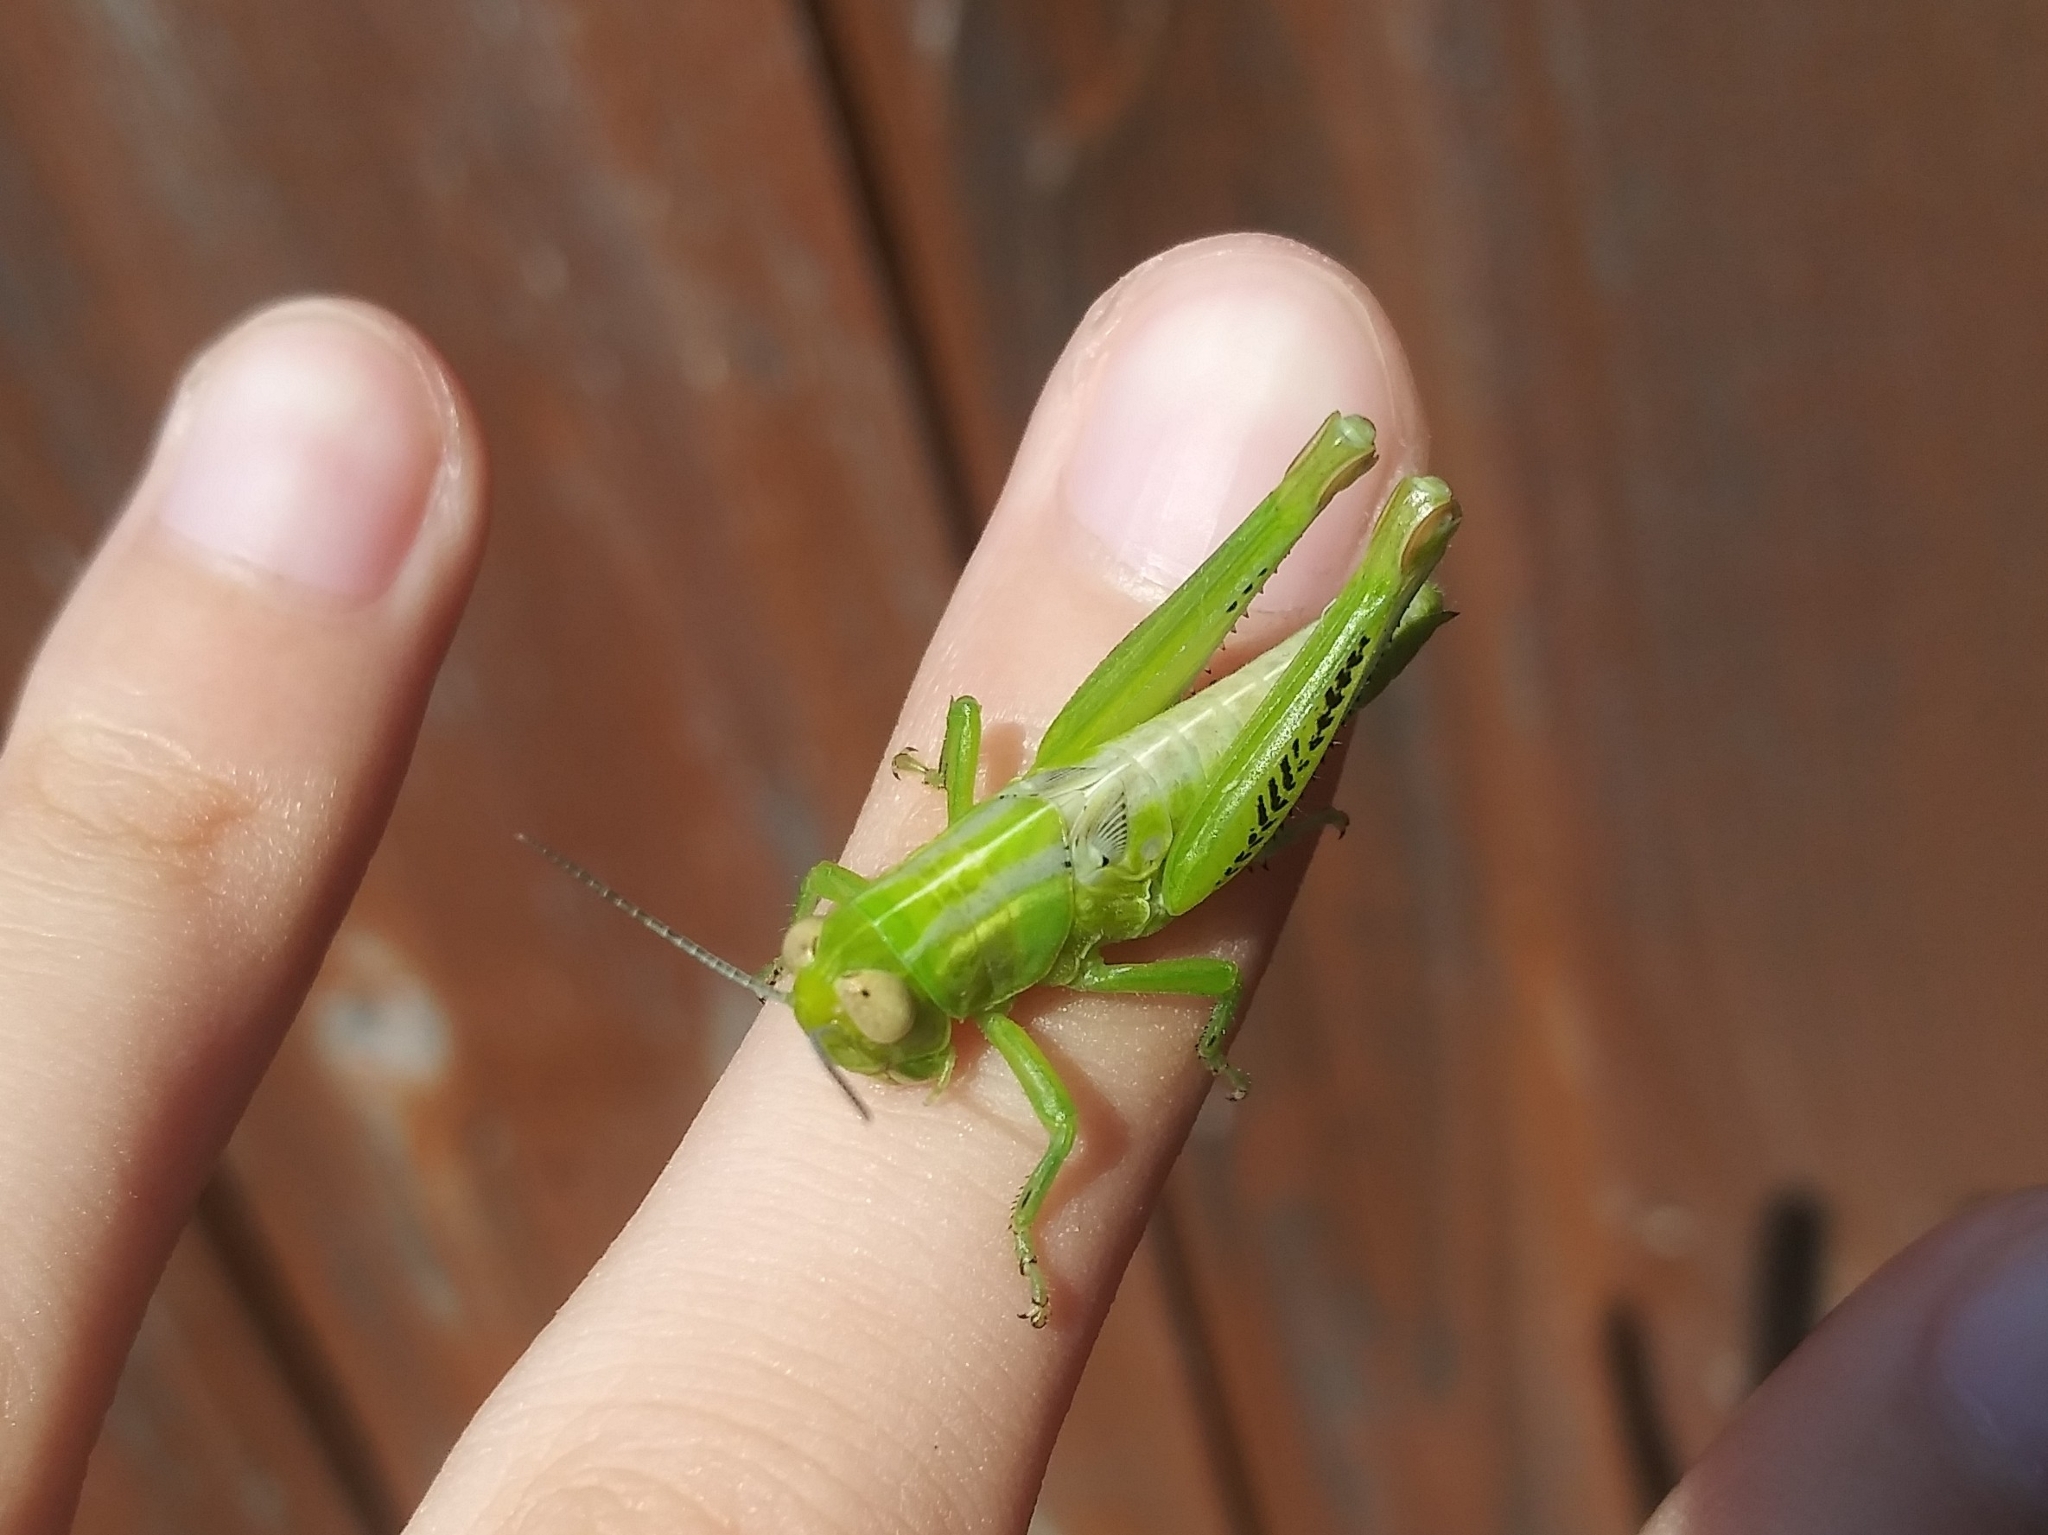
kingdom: Animalia
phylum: Arthropoda
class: Insecta
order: Orthoptera
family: Acrididae
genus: Melanoplus
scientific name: Melanoplus differentialis
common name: Differential grasshopper
